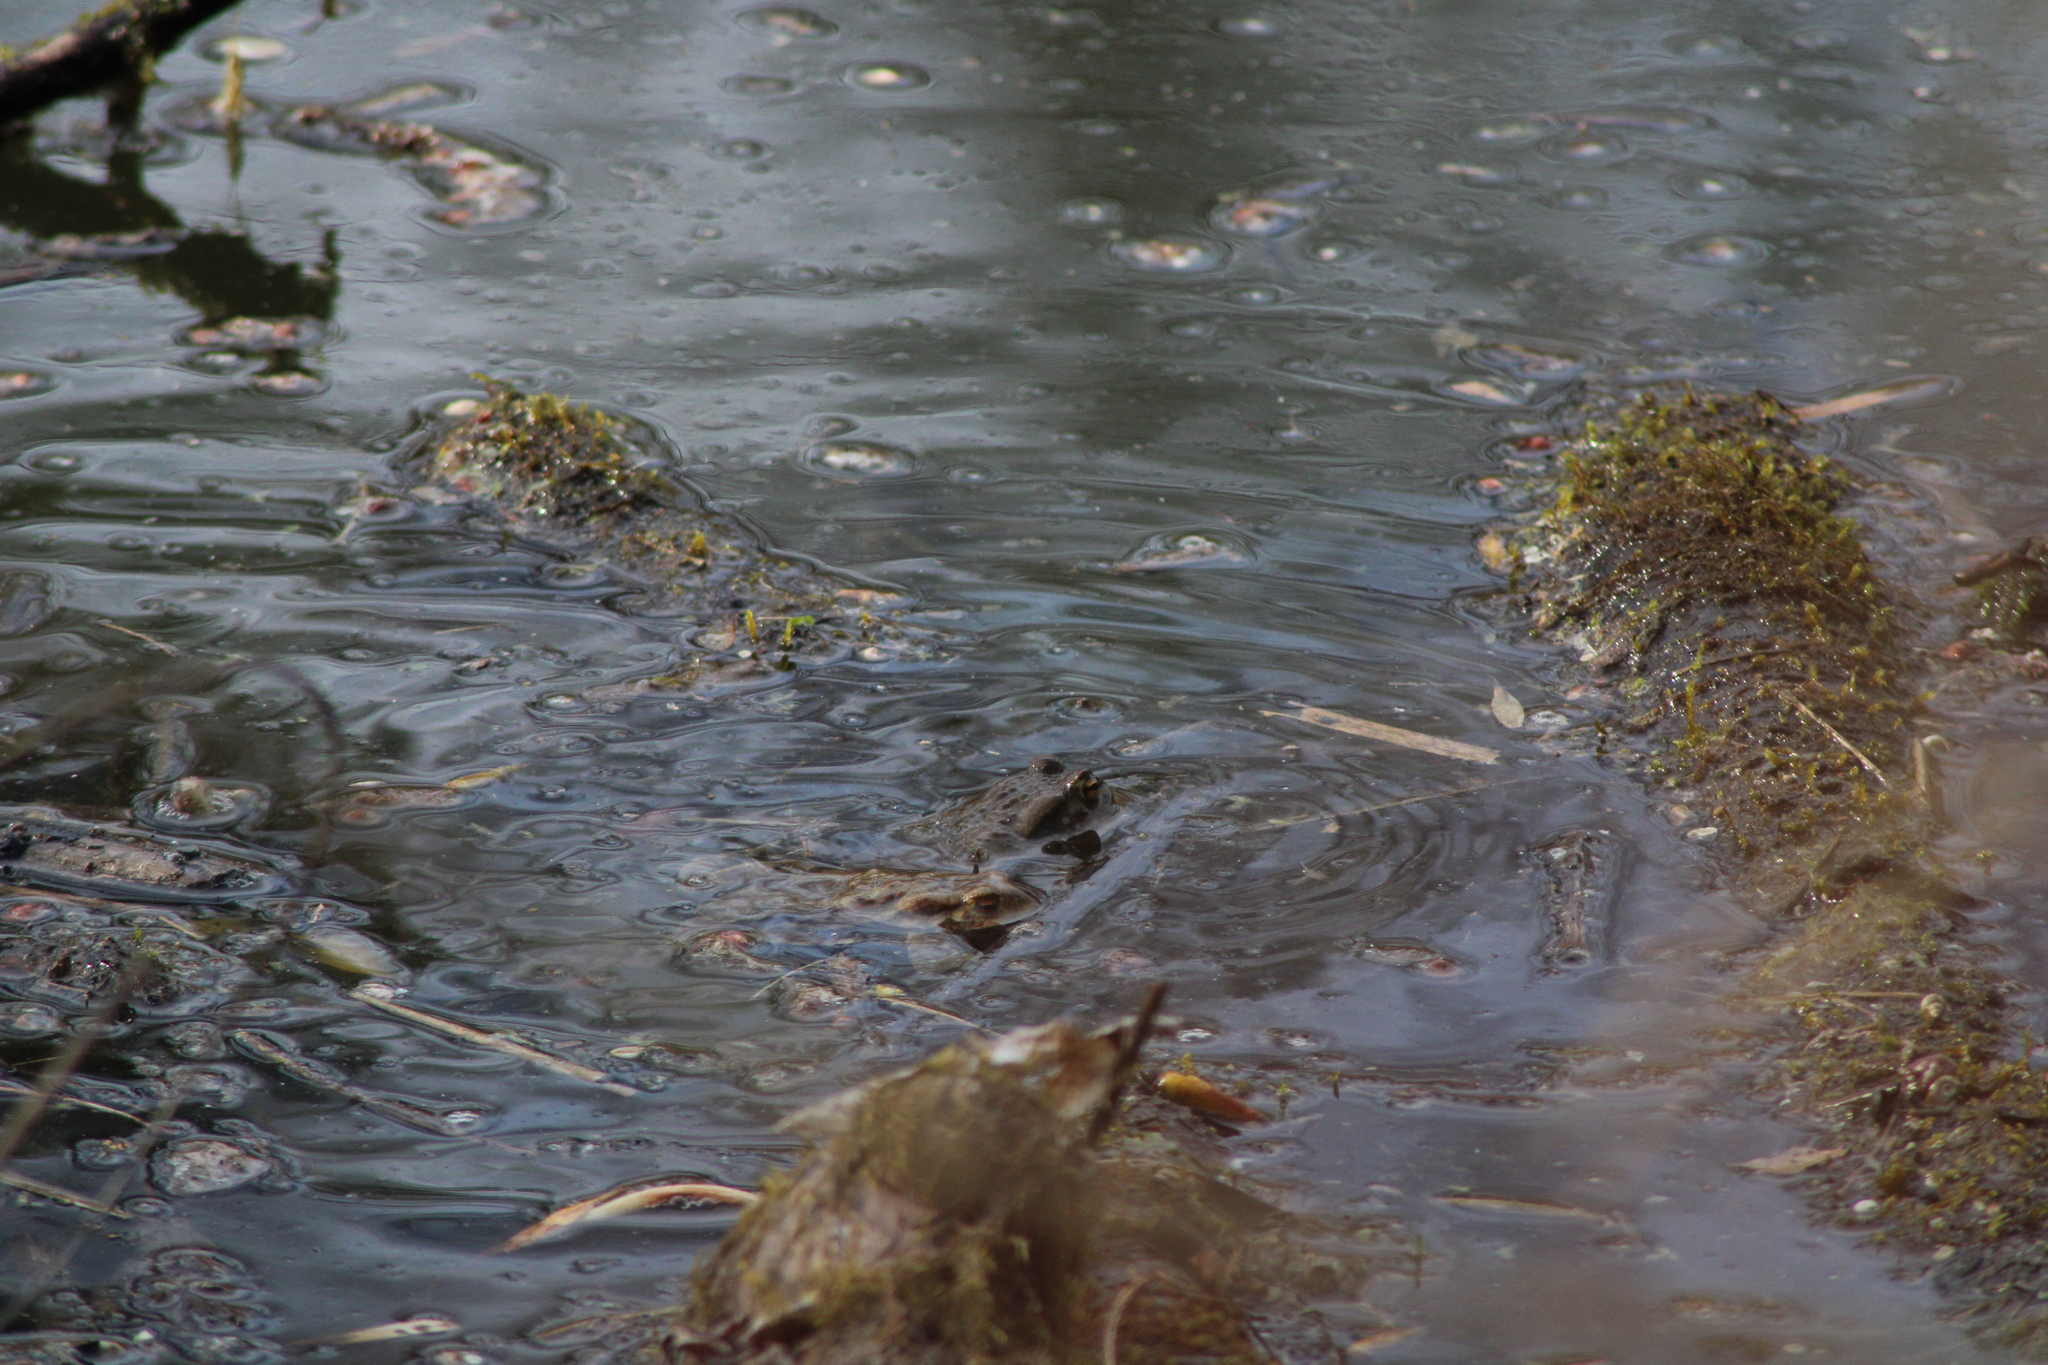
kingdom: Animalia
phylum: Chordata
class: Amphibia
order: Anura
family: Bufonidae
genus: Bufo
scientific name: Bufo bufo
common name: Common toad
